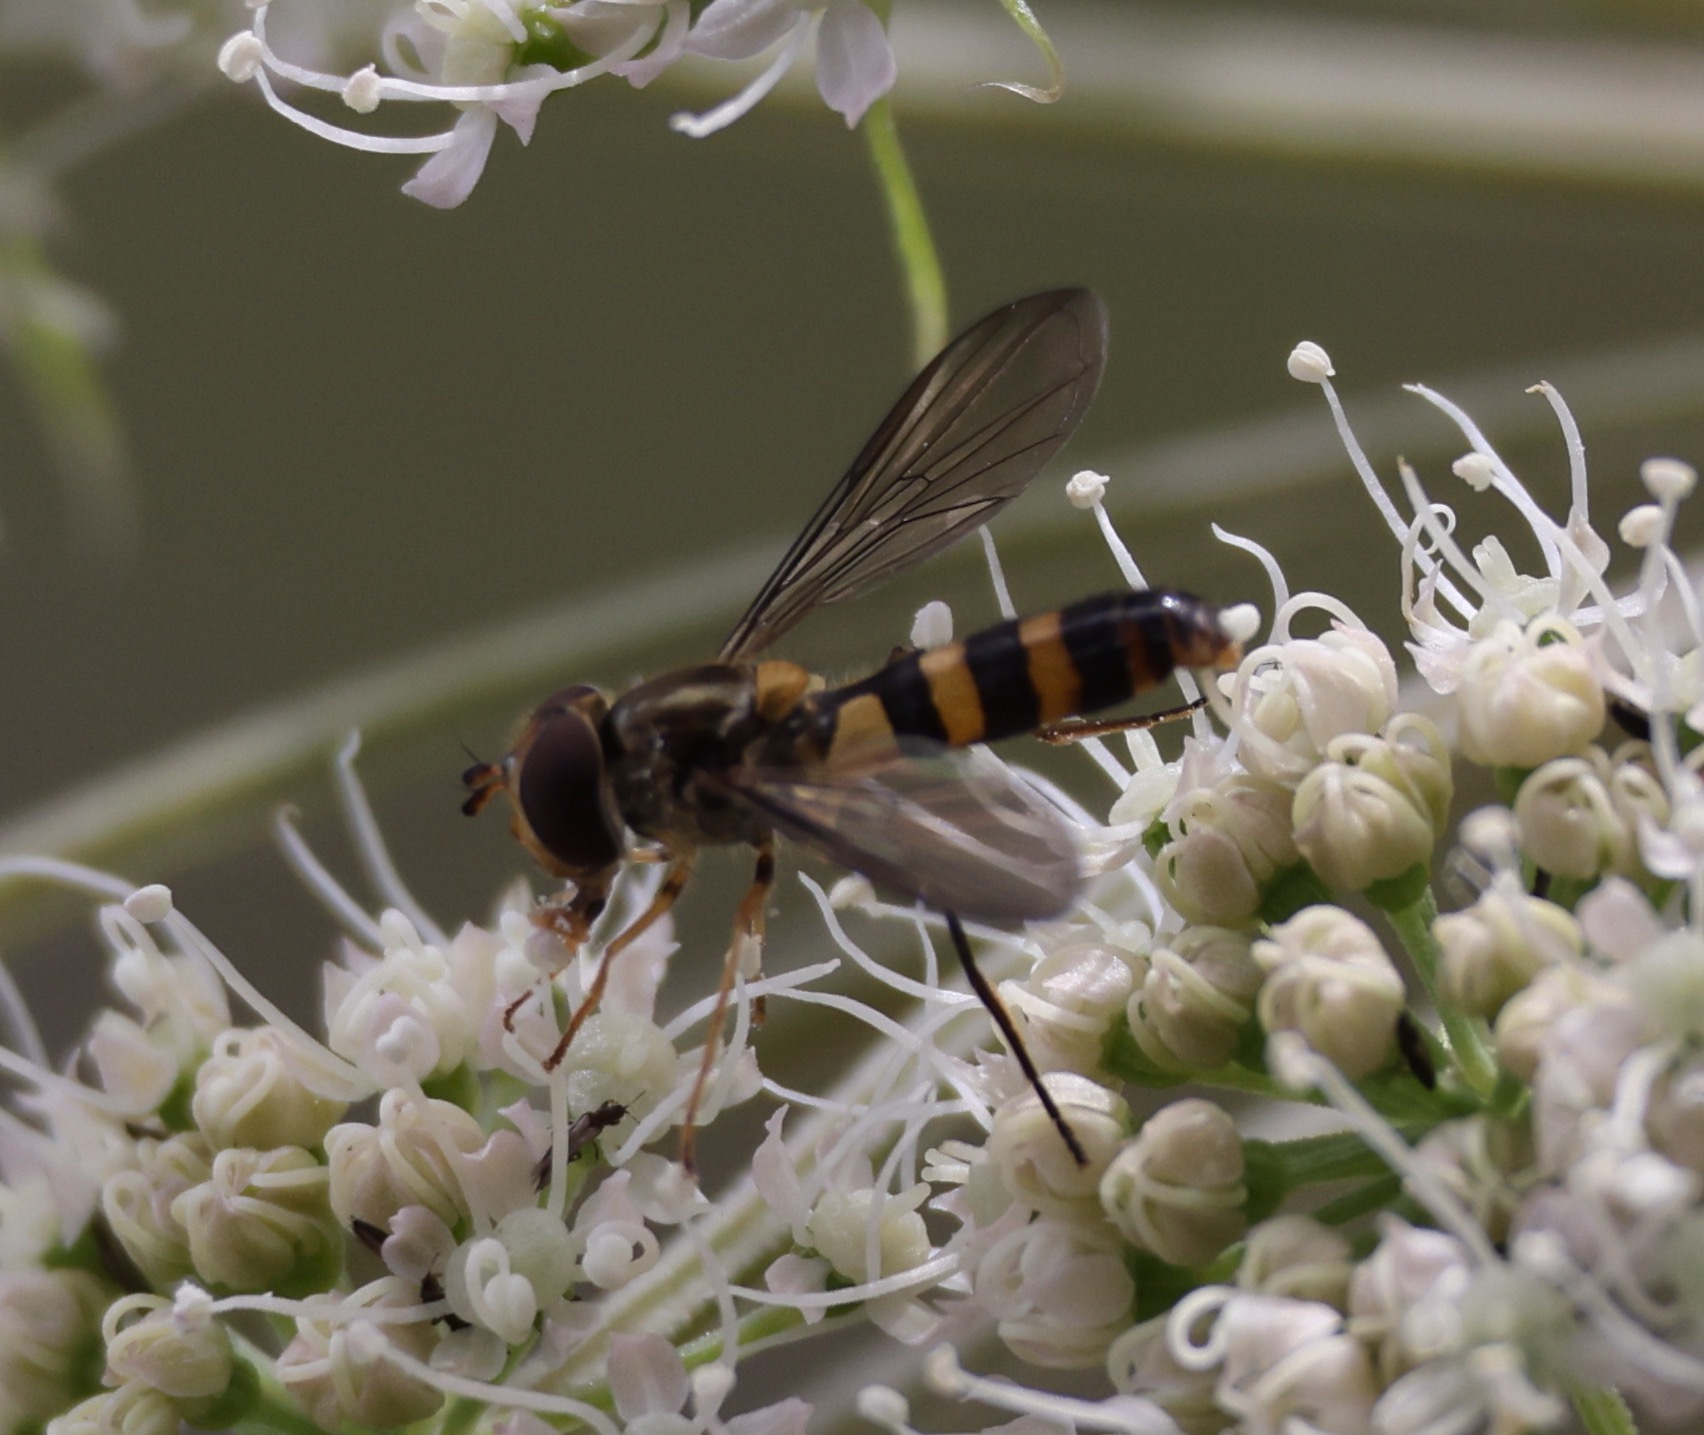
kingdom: Animalia
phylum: Arthropoda
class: Insecta
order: Diptera
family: Syrphidae
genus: Meliscaeva
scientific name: Meliscaeva cinctella
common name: American thintail fly
